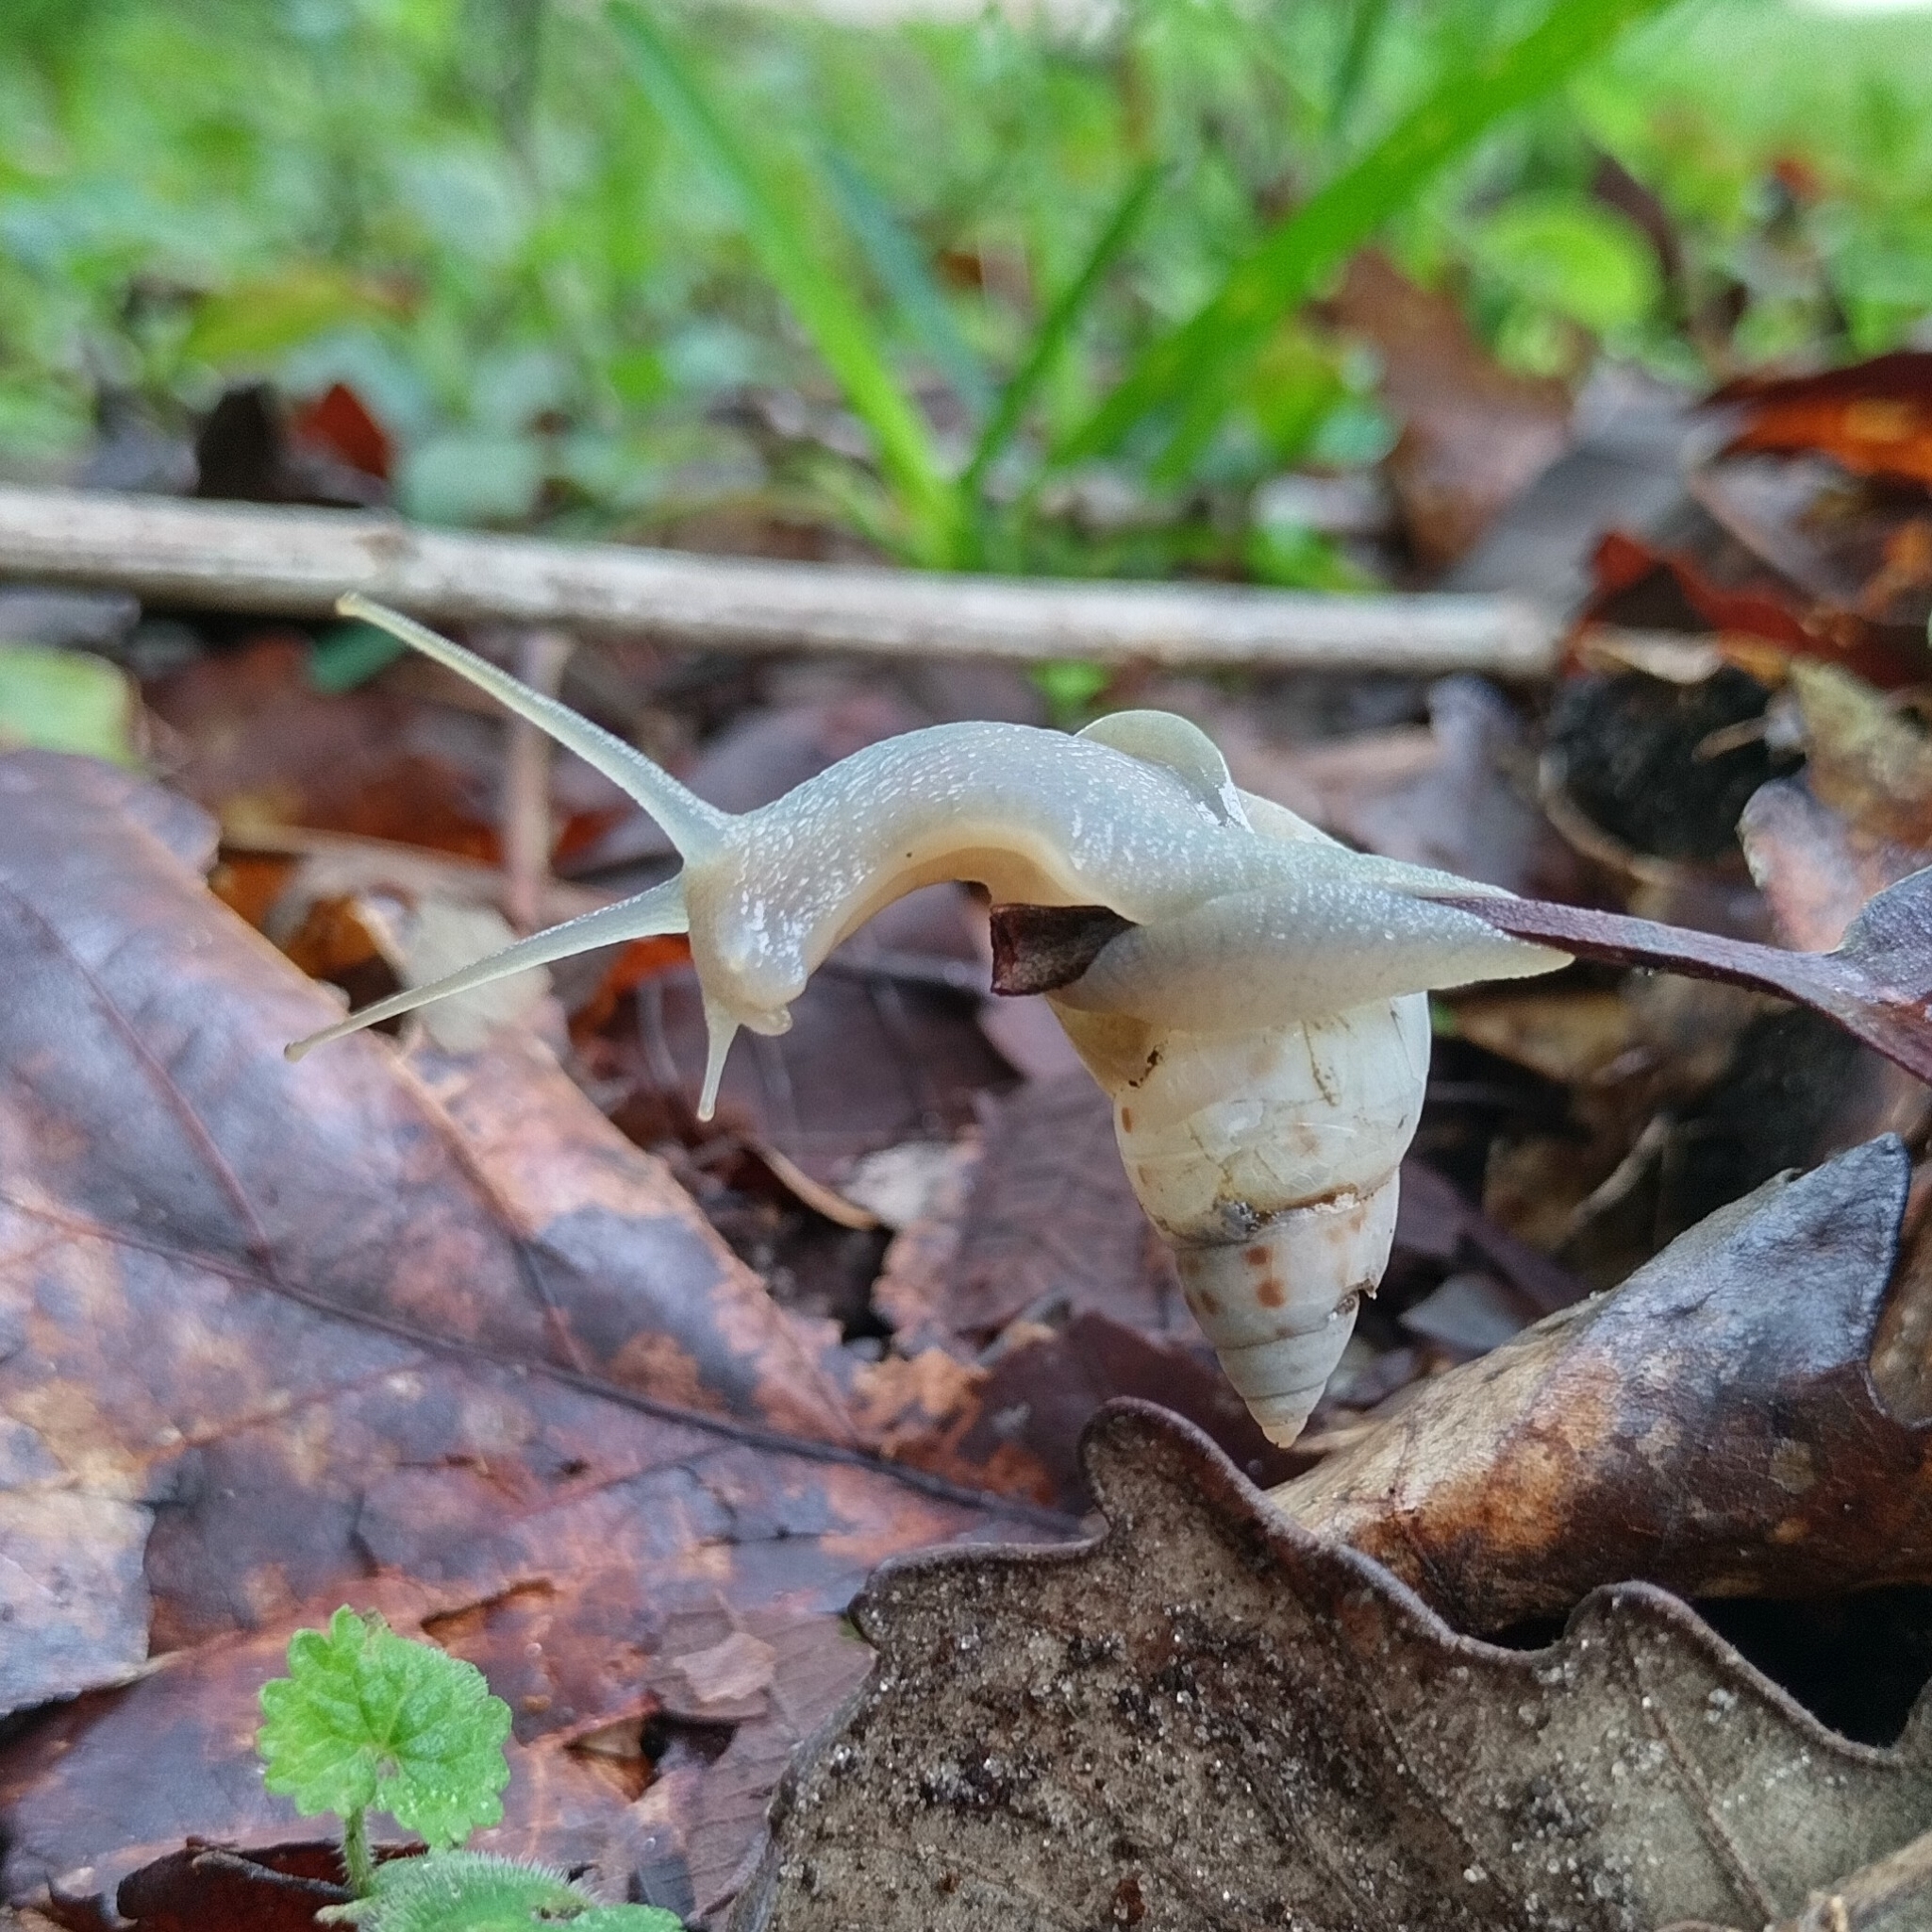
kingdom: Animalia
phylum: Mollusca
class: Gastropoda
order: Stylommatophora
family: Bulimulidae
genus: Drymaeus
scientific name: Drymaeus dormani
